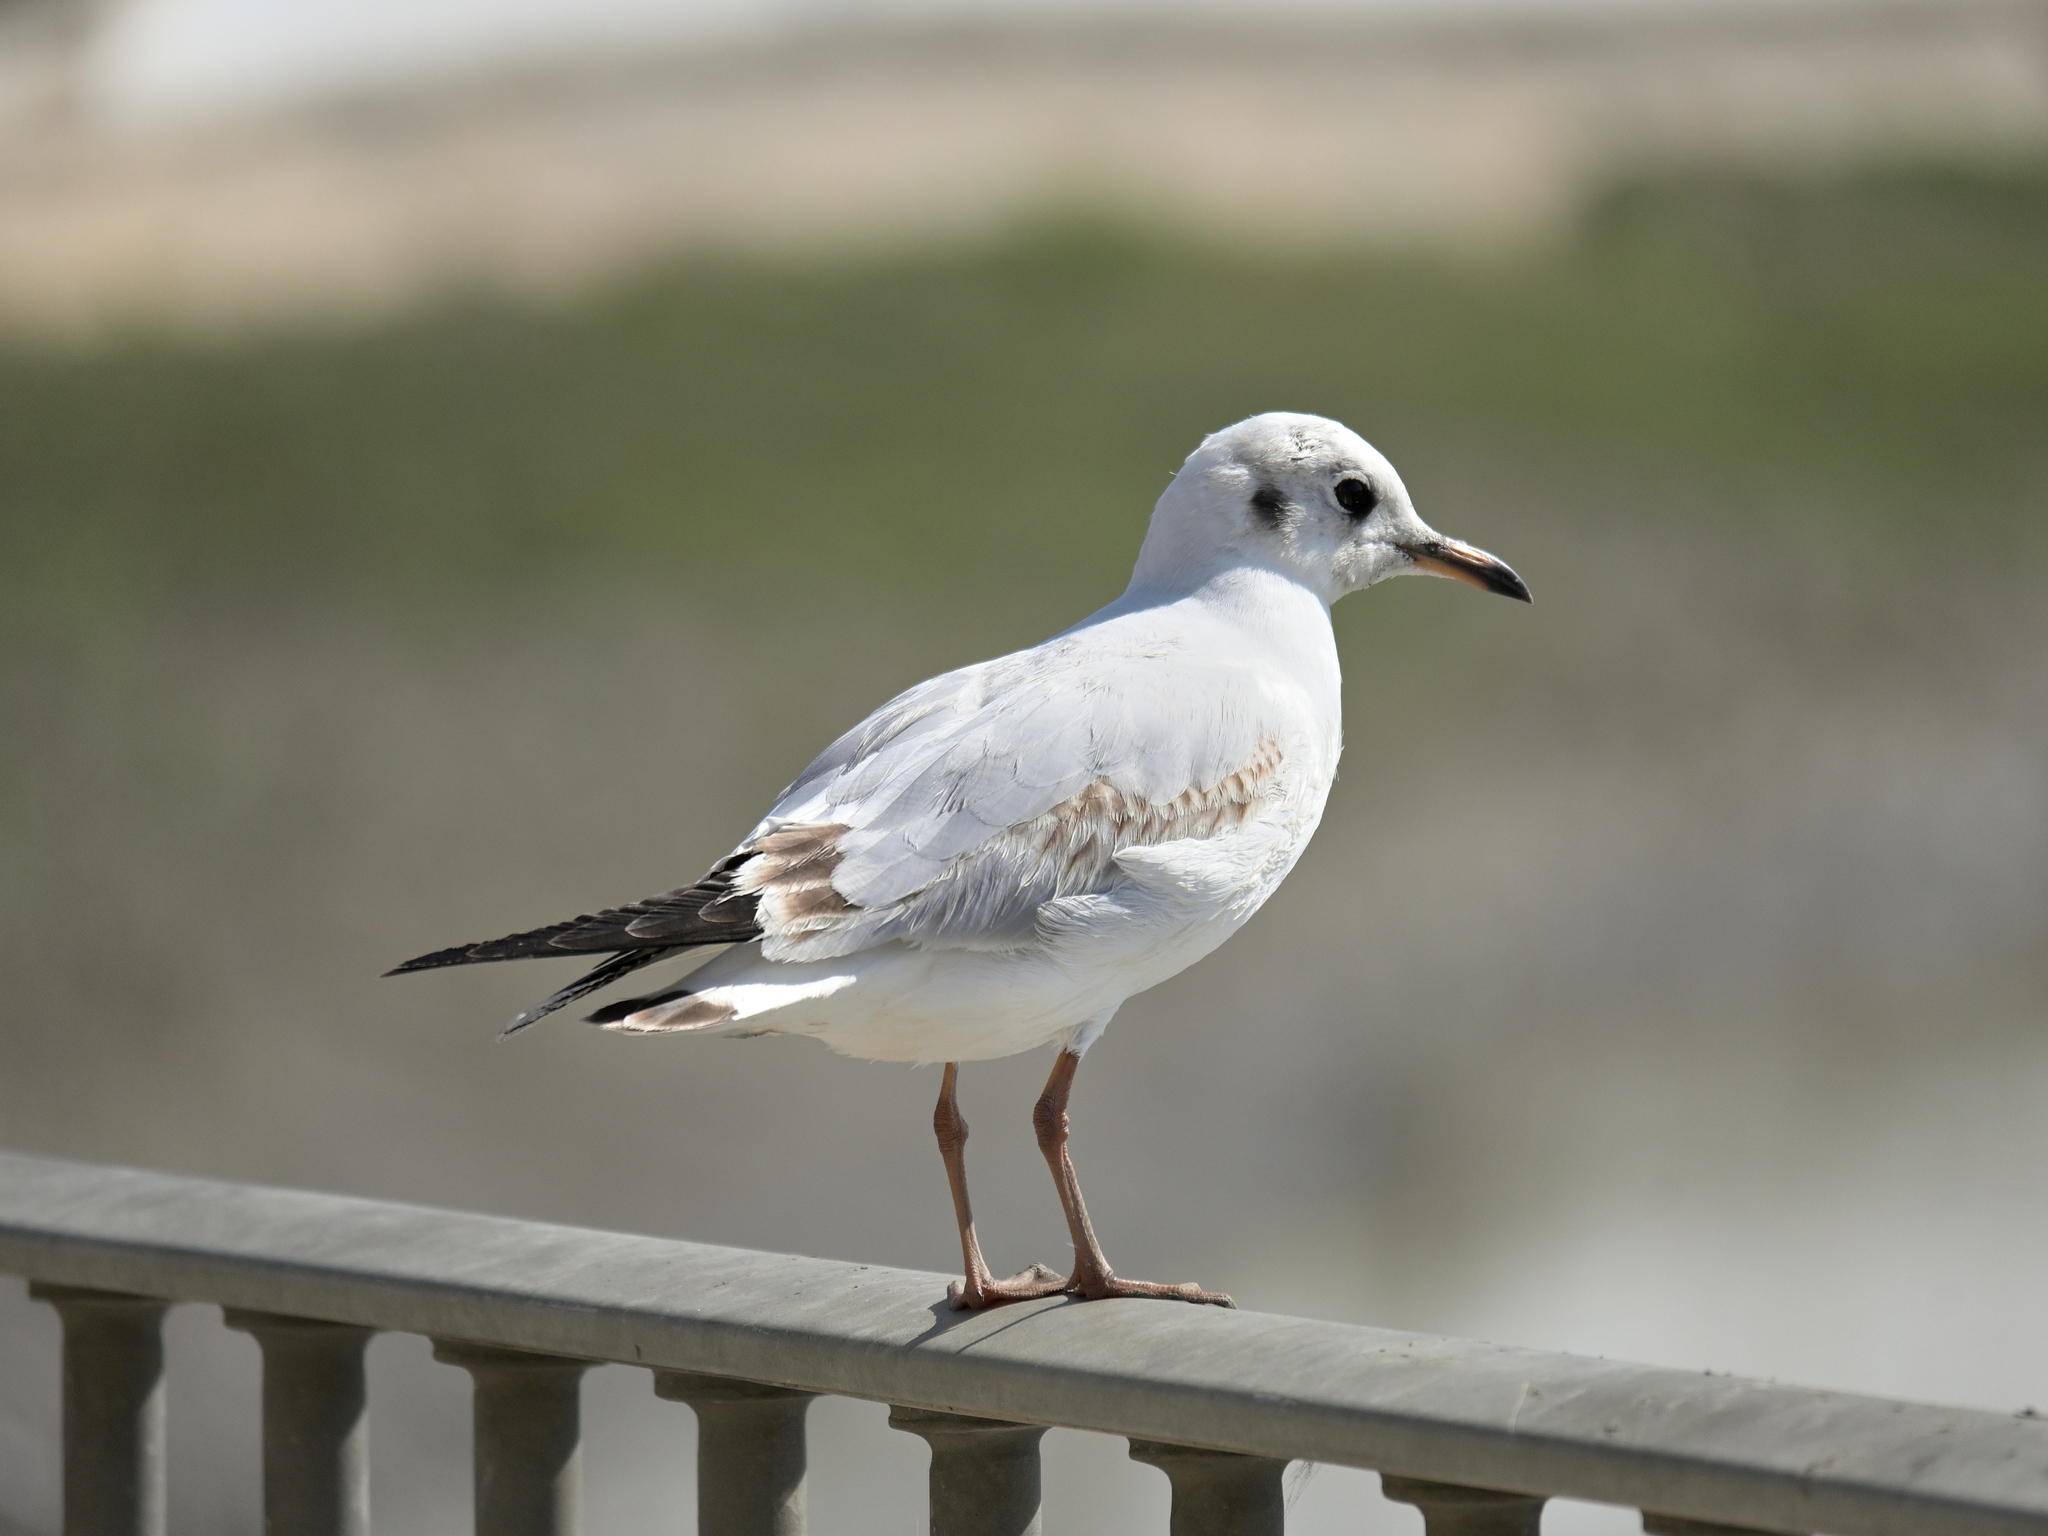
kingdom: Animalia
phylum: Chordata
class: Aves
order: Charadriiformes
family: Laridae
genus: Chroicocephalus
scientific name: Chroicocephalus ridibundus
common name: Black-headed gull
